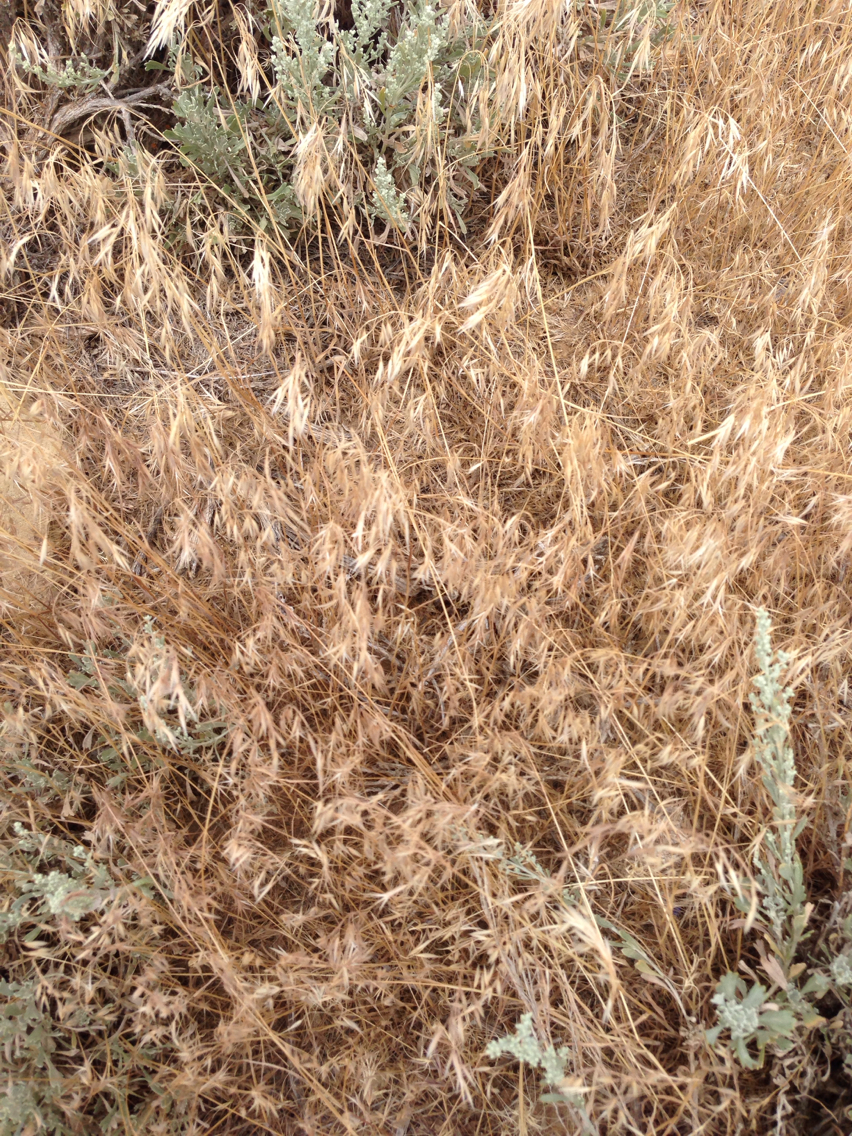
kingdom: Plantae
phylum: Tracheophyta
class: Liliopsida
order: Poales
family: Poaceae
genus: Bromus
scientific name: Bromus tectorum
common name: Cheatgrass
